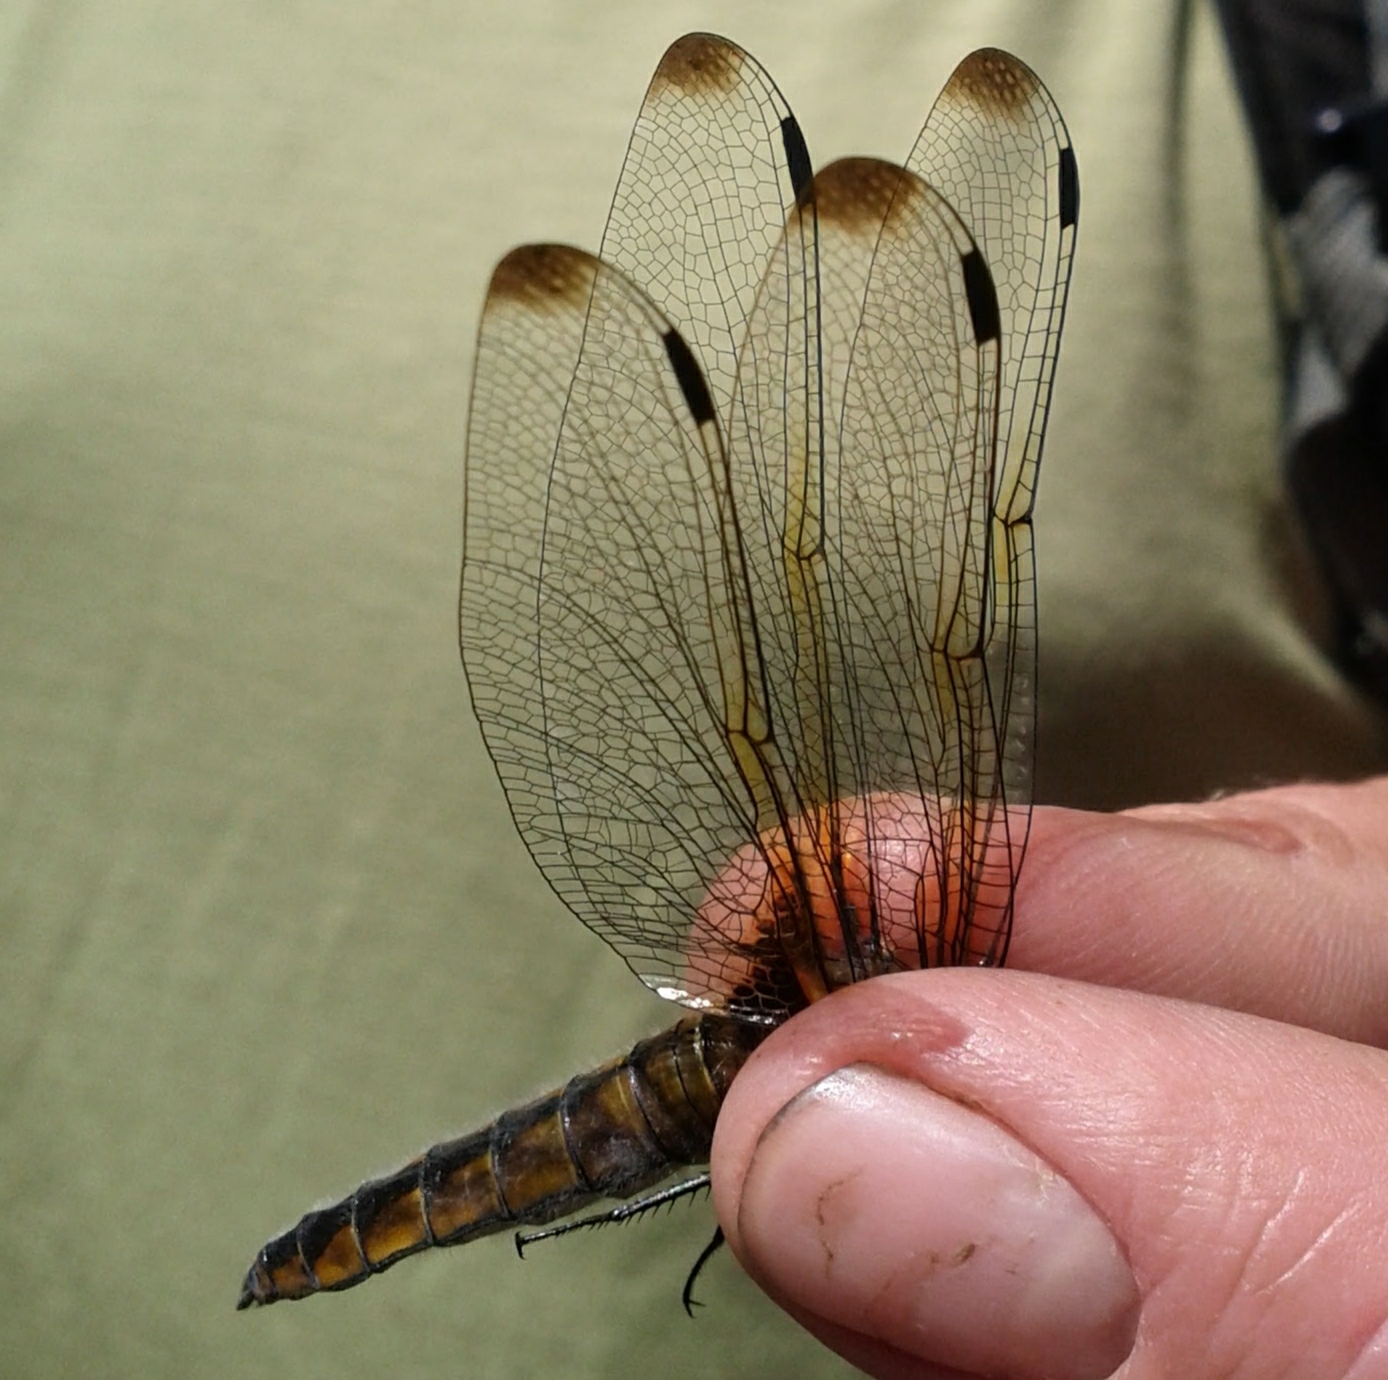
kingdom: Animalia
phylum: Arthropoda
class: Insecta
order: Odonata
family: Libellulidae
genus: Libellula
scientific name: Libellula fulva
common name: Blue chaser
